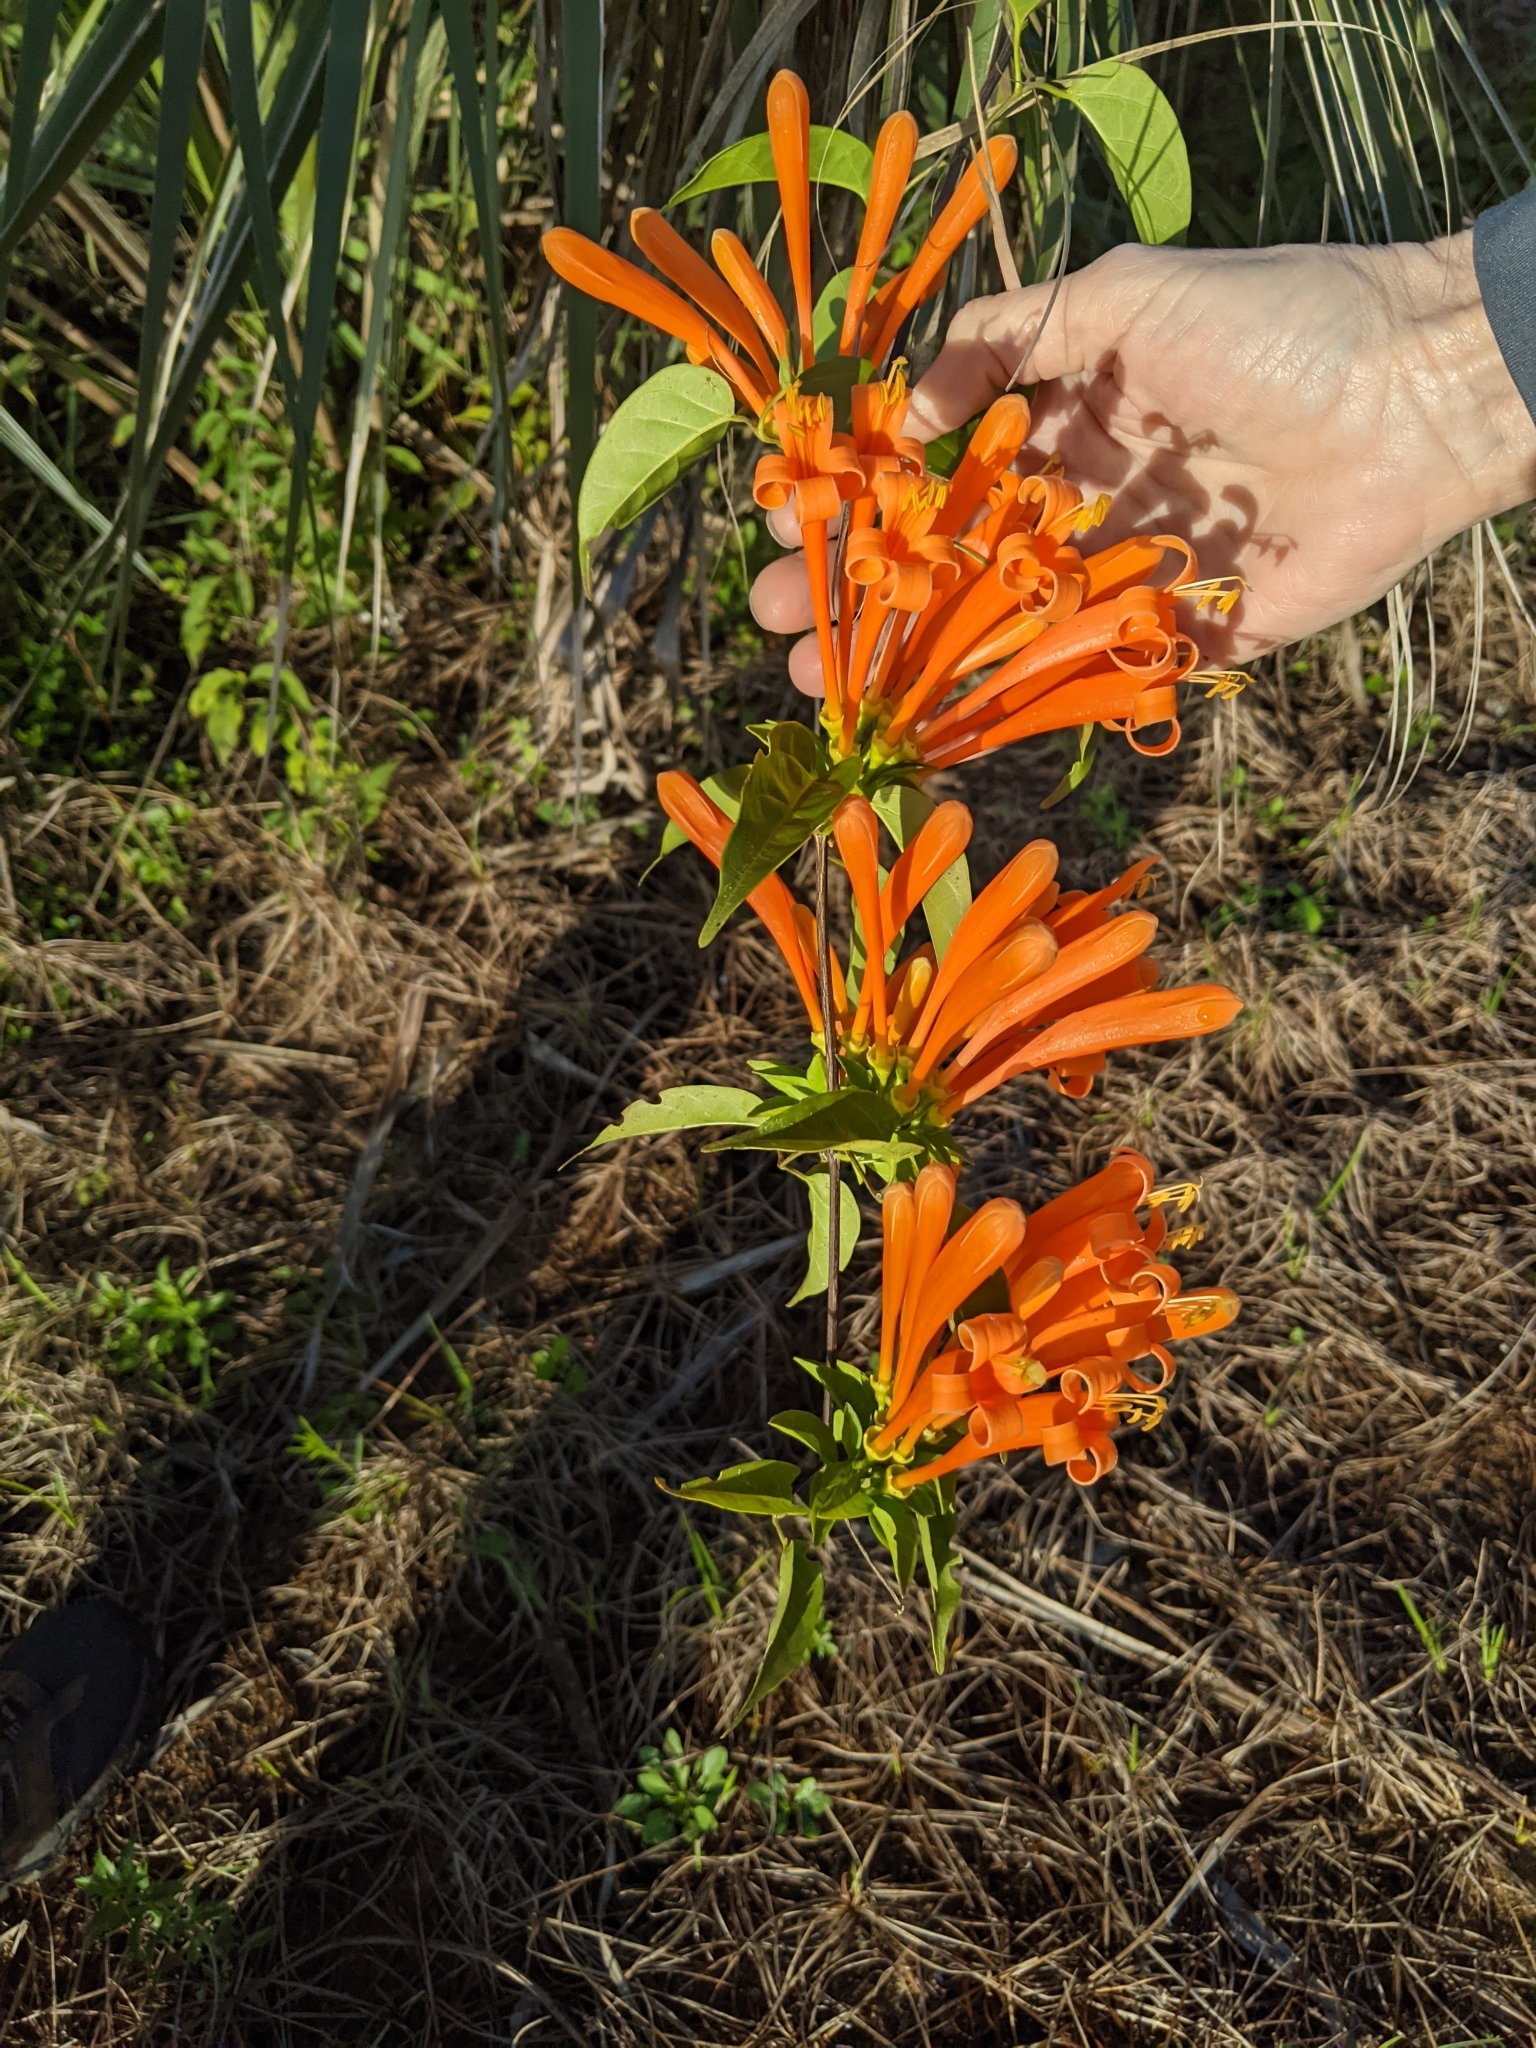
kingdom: Plantae
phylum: Tracheophyta
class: Magnoliopsida
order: Lamiales
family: Bignoniaceae
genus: Pyrostegia
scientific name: Pyrostegia venusta
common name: Flamevine
